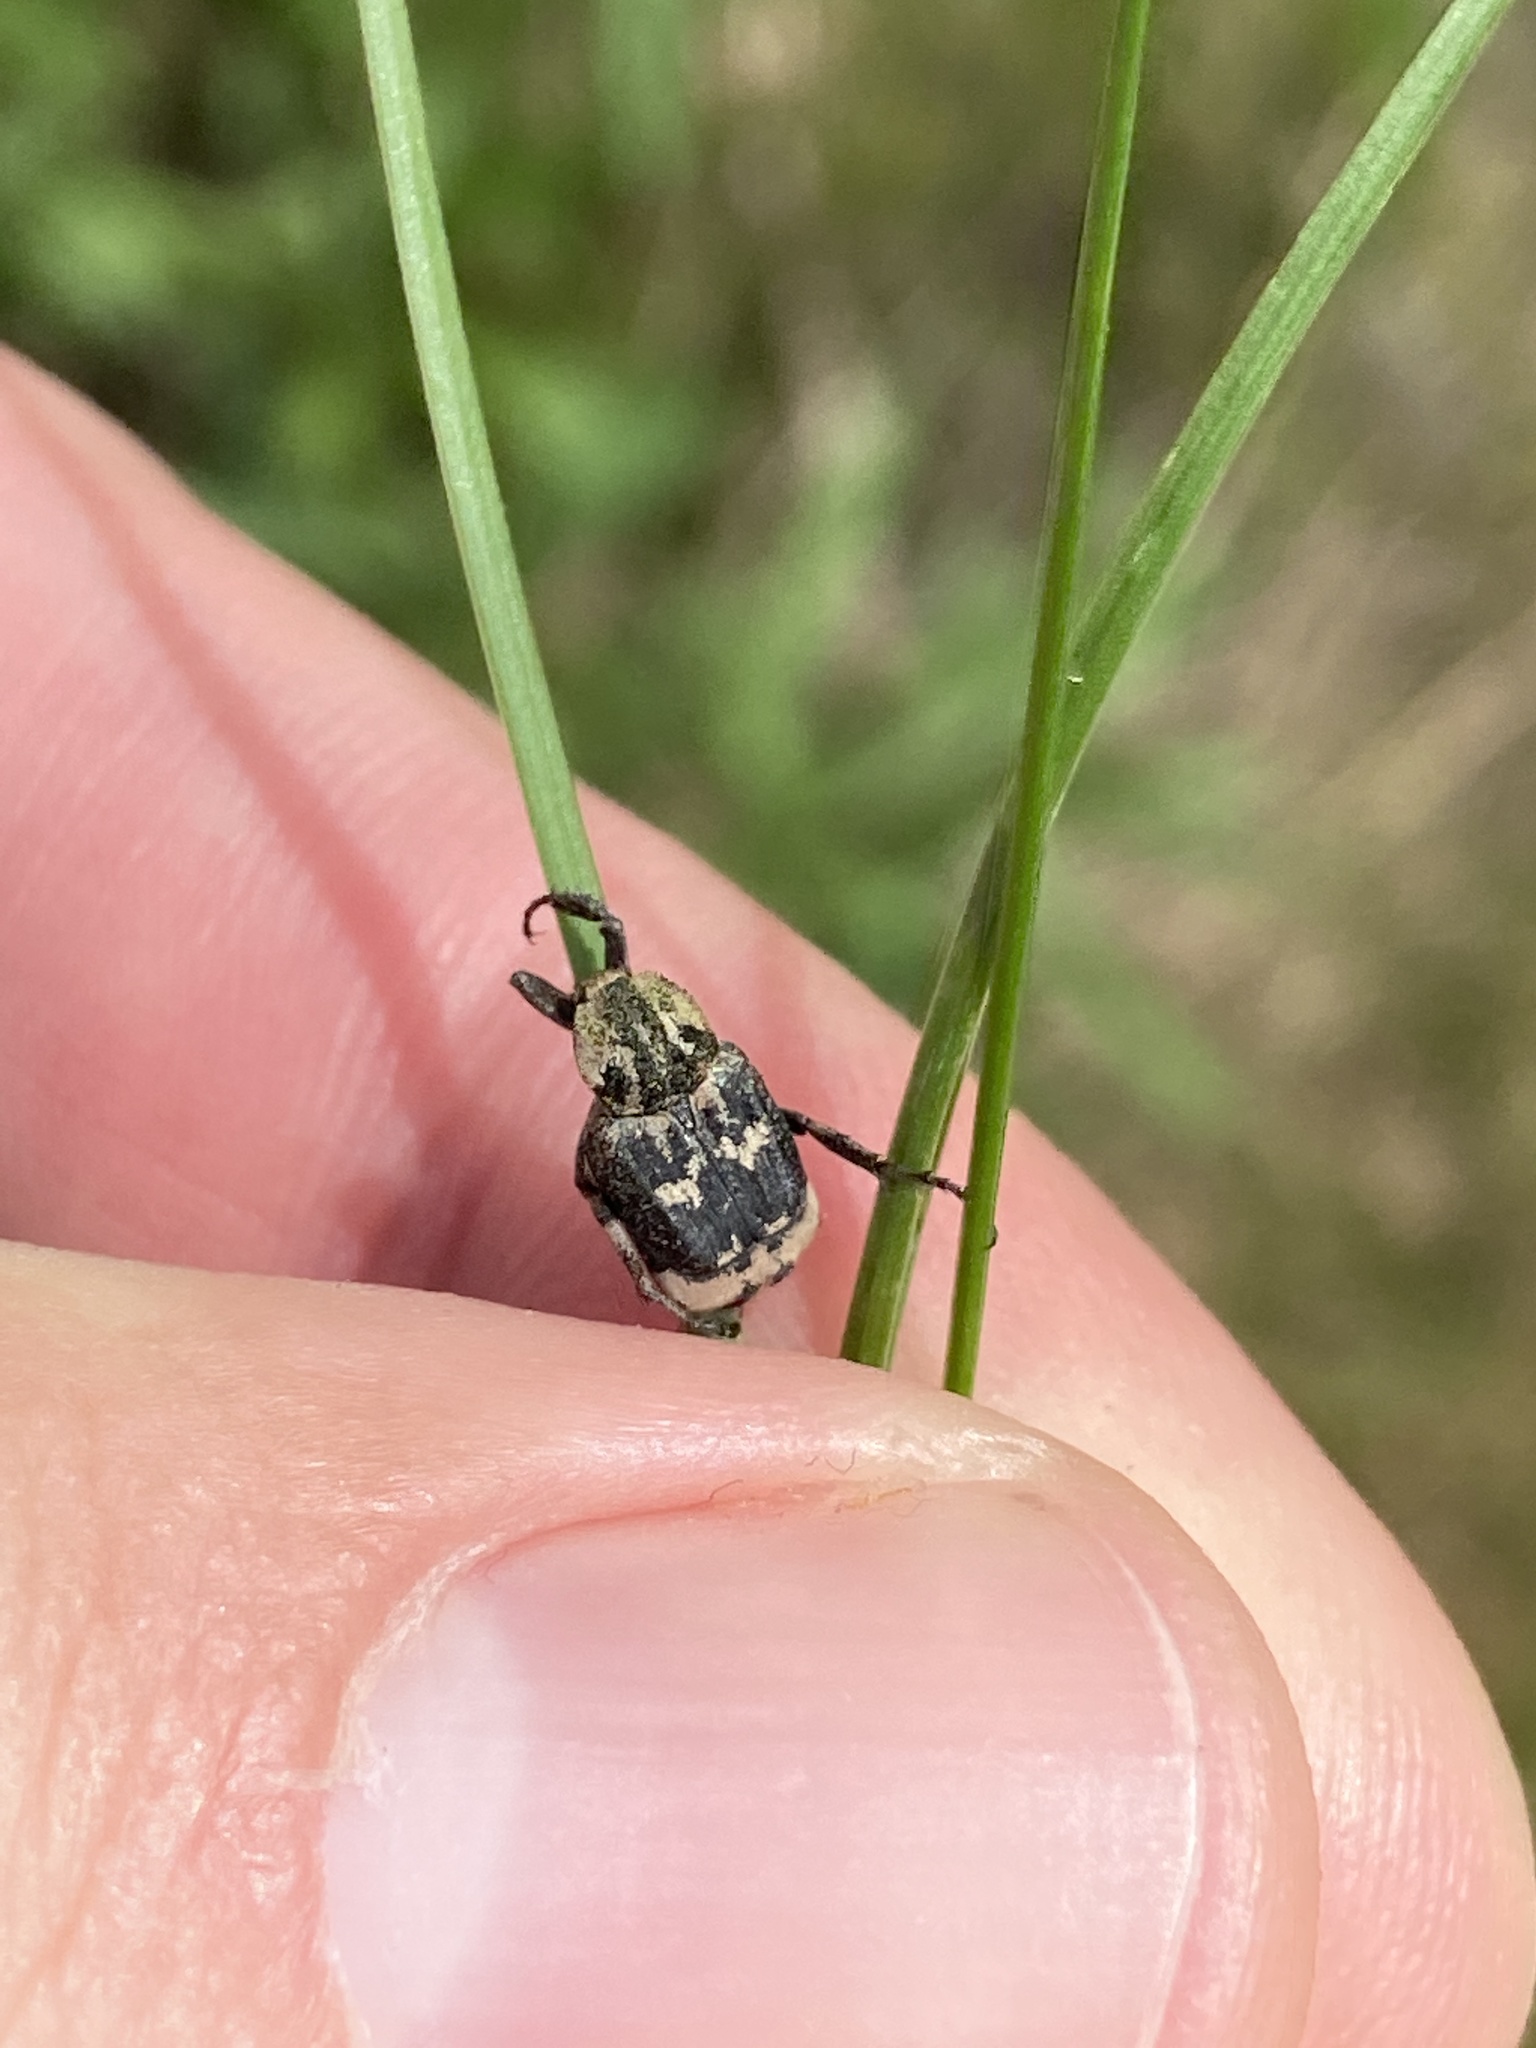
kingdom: Animalia
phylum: Arthropoda
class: Insecta
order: Coleoptera
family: Scarabaeidae
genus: Valgus
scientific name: Valgus hemipterus
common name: Bug flower chafer
